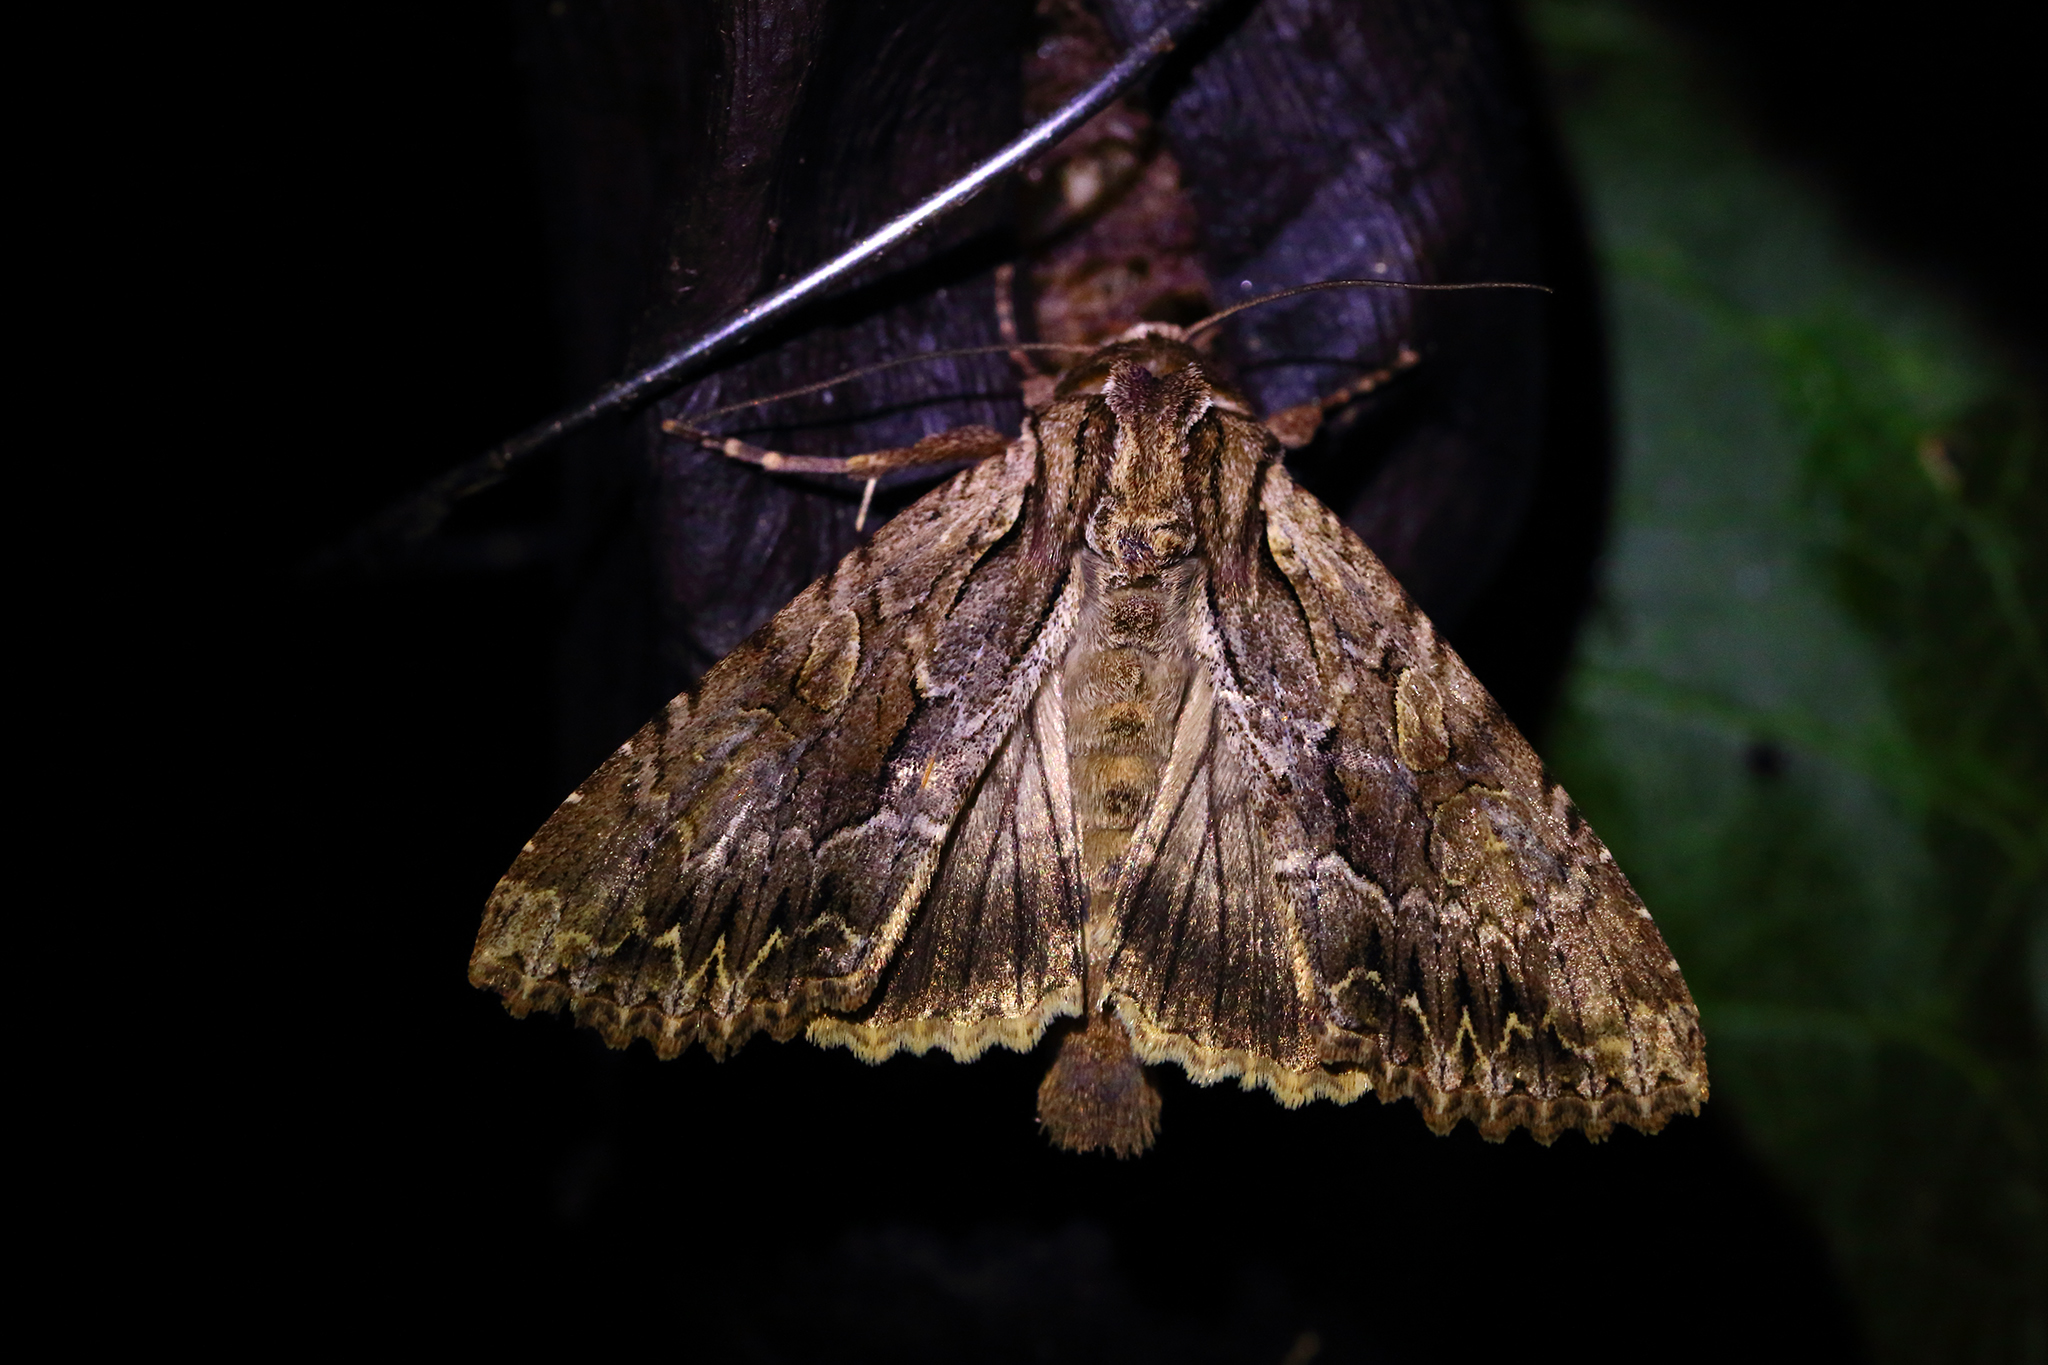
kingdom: Animalia
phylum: Arthropoda
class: Insecta
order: Lepidoptera
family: Noctuidae
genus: Apamea
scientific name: Apamea monoglypha
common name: Dark arches
